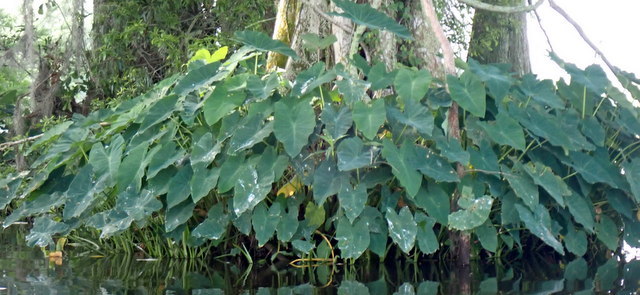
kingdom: Plantae
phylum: Tracheophyta
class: Liliopsida
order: Alismatales
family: Araceae
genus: Colocasia
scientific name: Colocasia esculenta
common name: Taro
